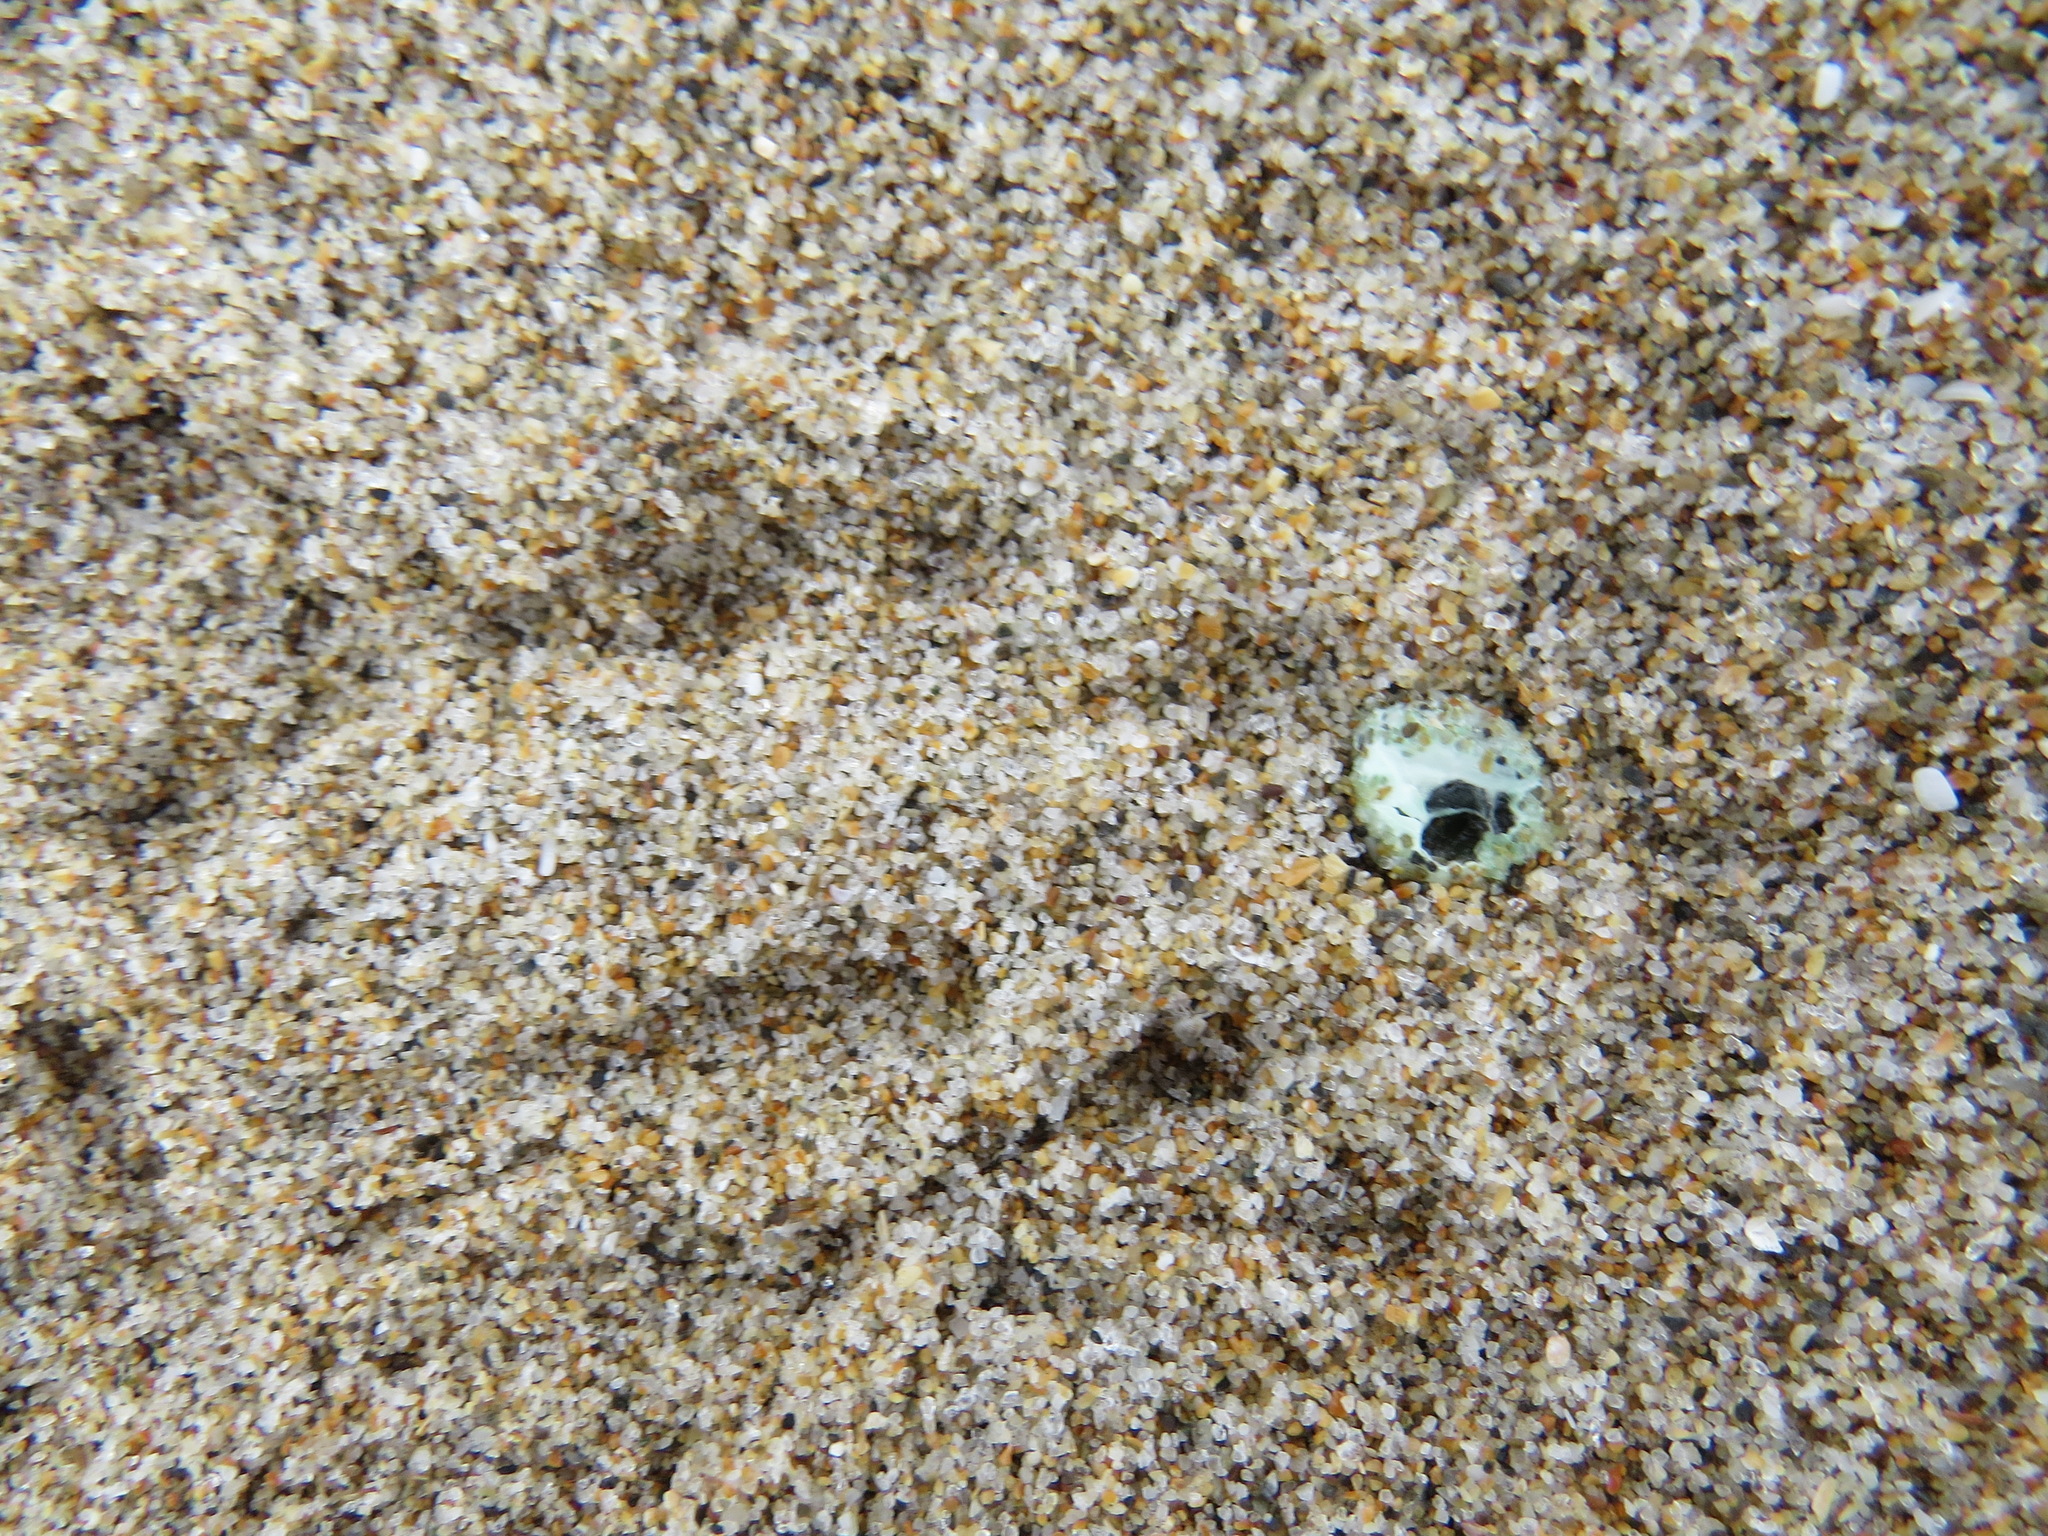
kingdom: Animalia
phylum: Chordata
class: Aves
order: Charadriiformes
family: Charadriidae
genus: Anarhynchus
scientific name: Anarhynchus
